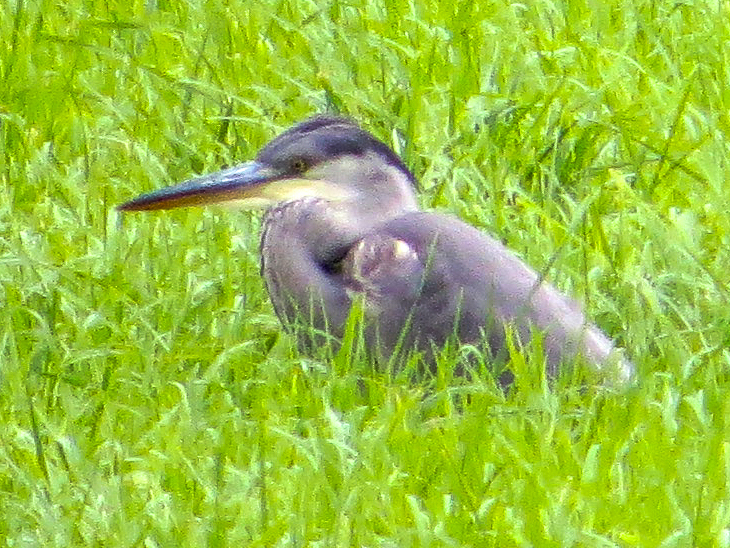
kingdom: Animalia
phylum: Chordata
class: Aves
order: Pelecaniformes
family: Ardeidae
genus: Ardea
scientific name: Ardea cinerea
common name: Grey heron
